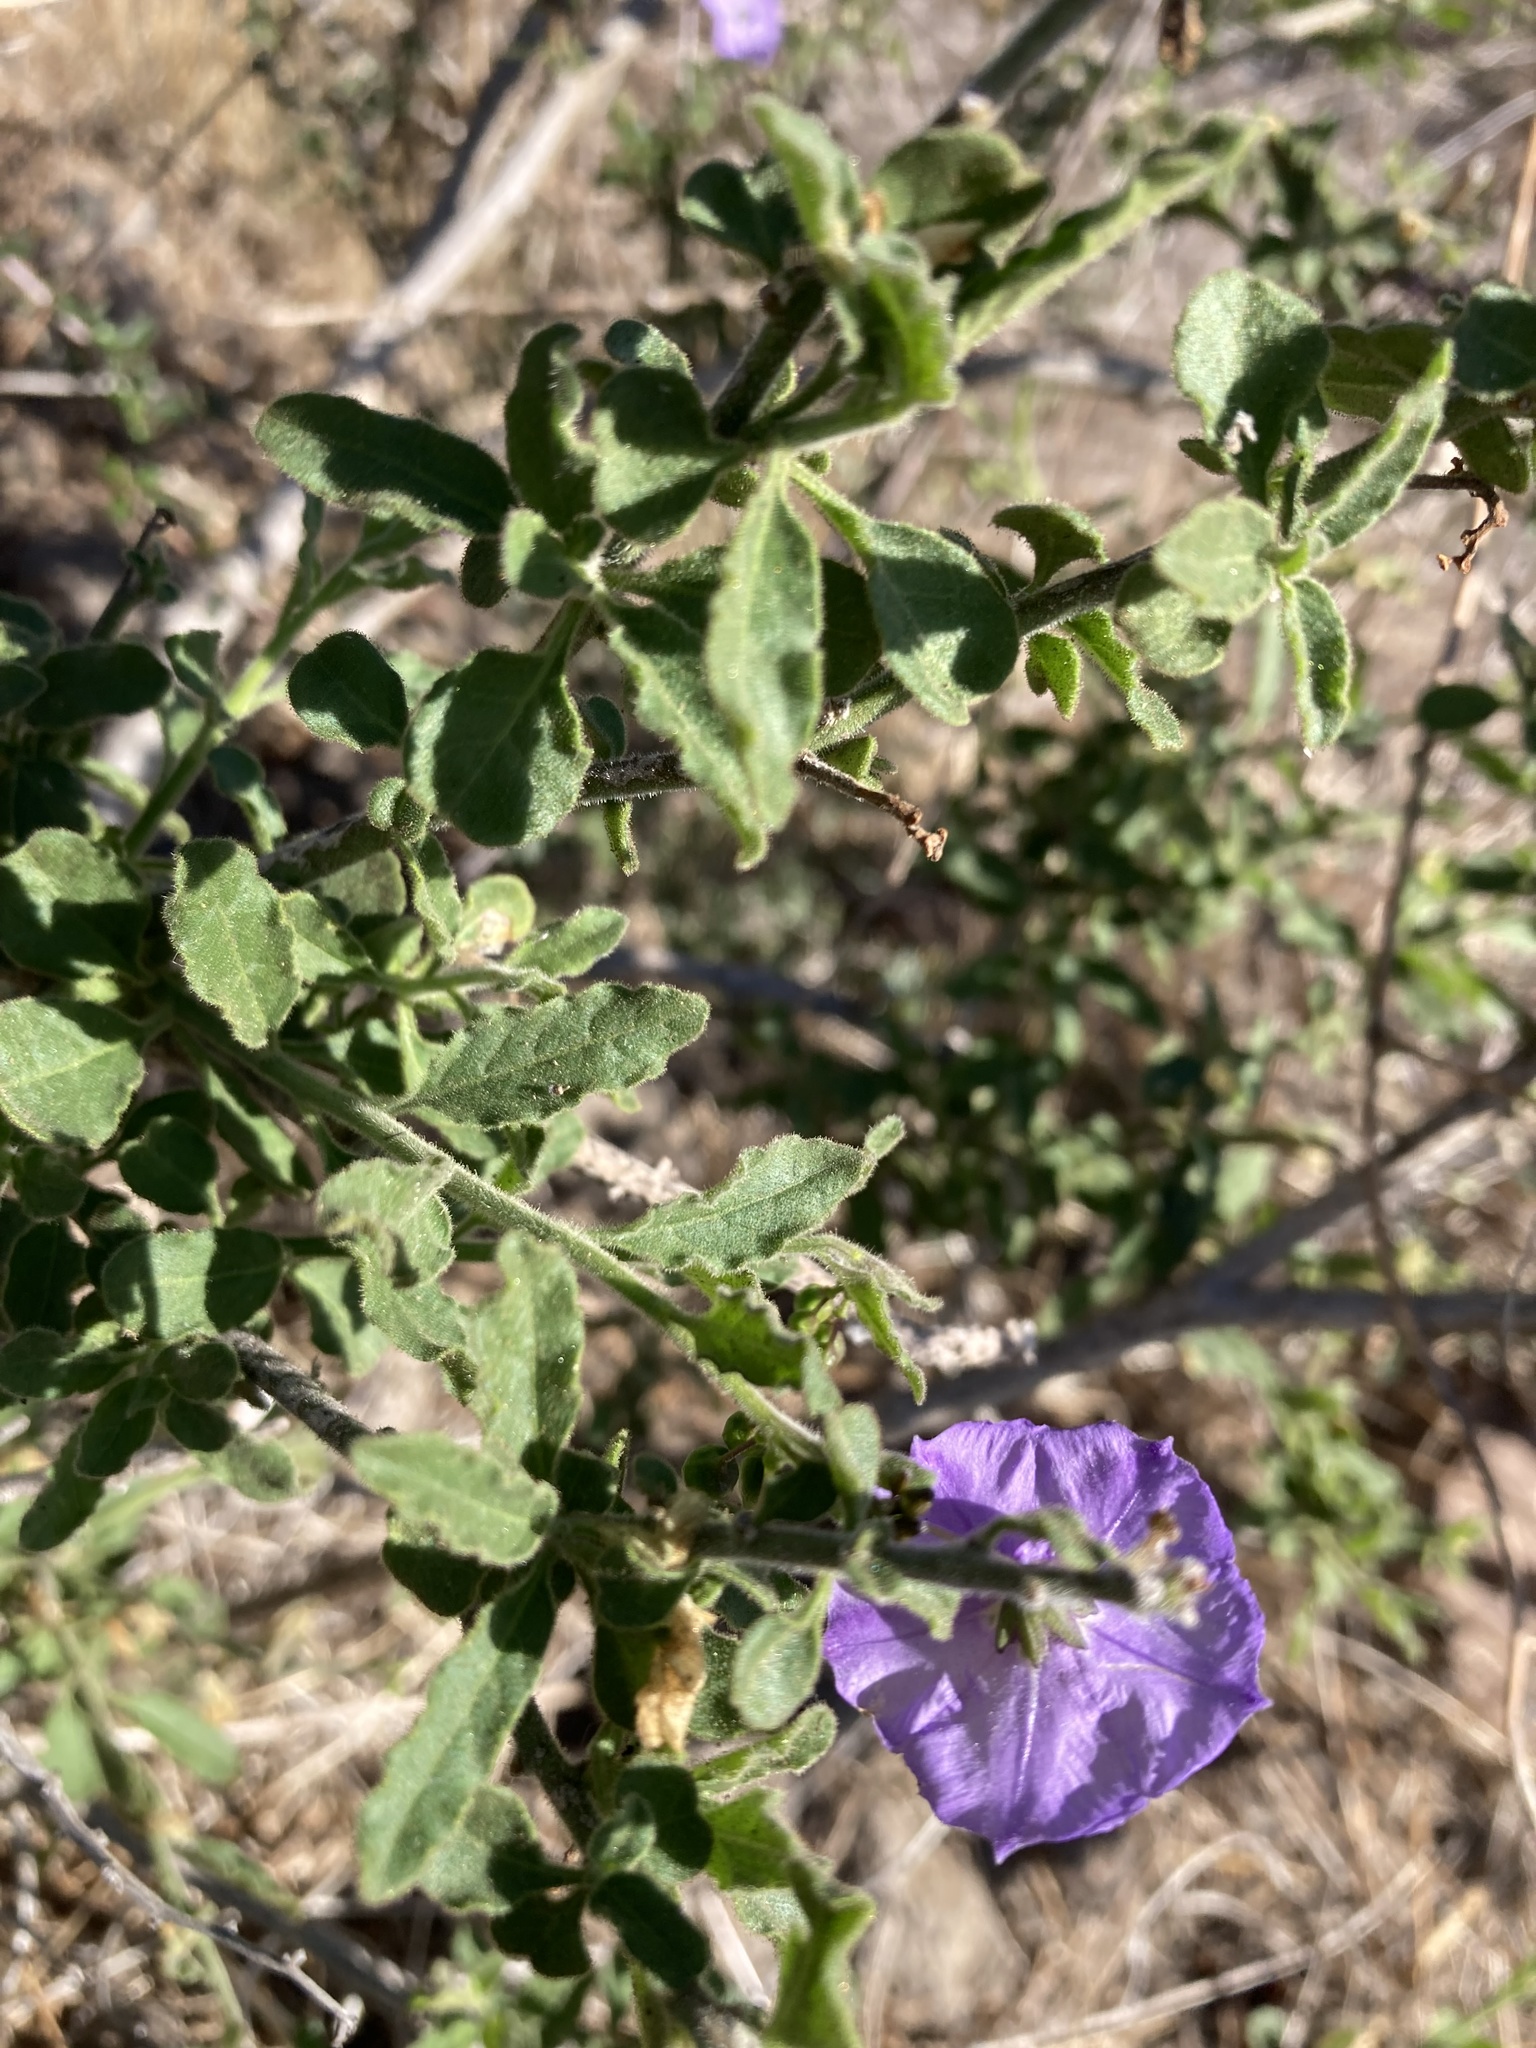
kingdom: Plantae
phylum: Tracheophyta
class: Magnoliopsida
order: Solanales
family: Solanaceae
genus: Solanum
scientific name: Solanum umbelliferum
